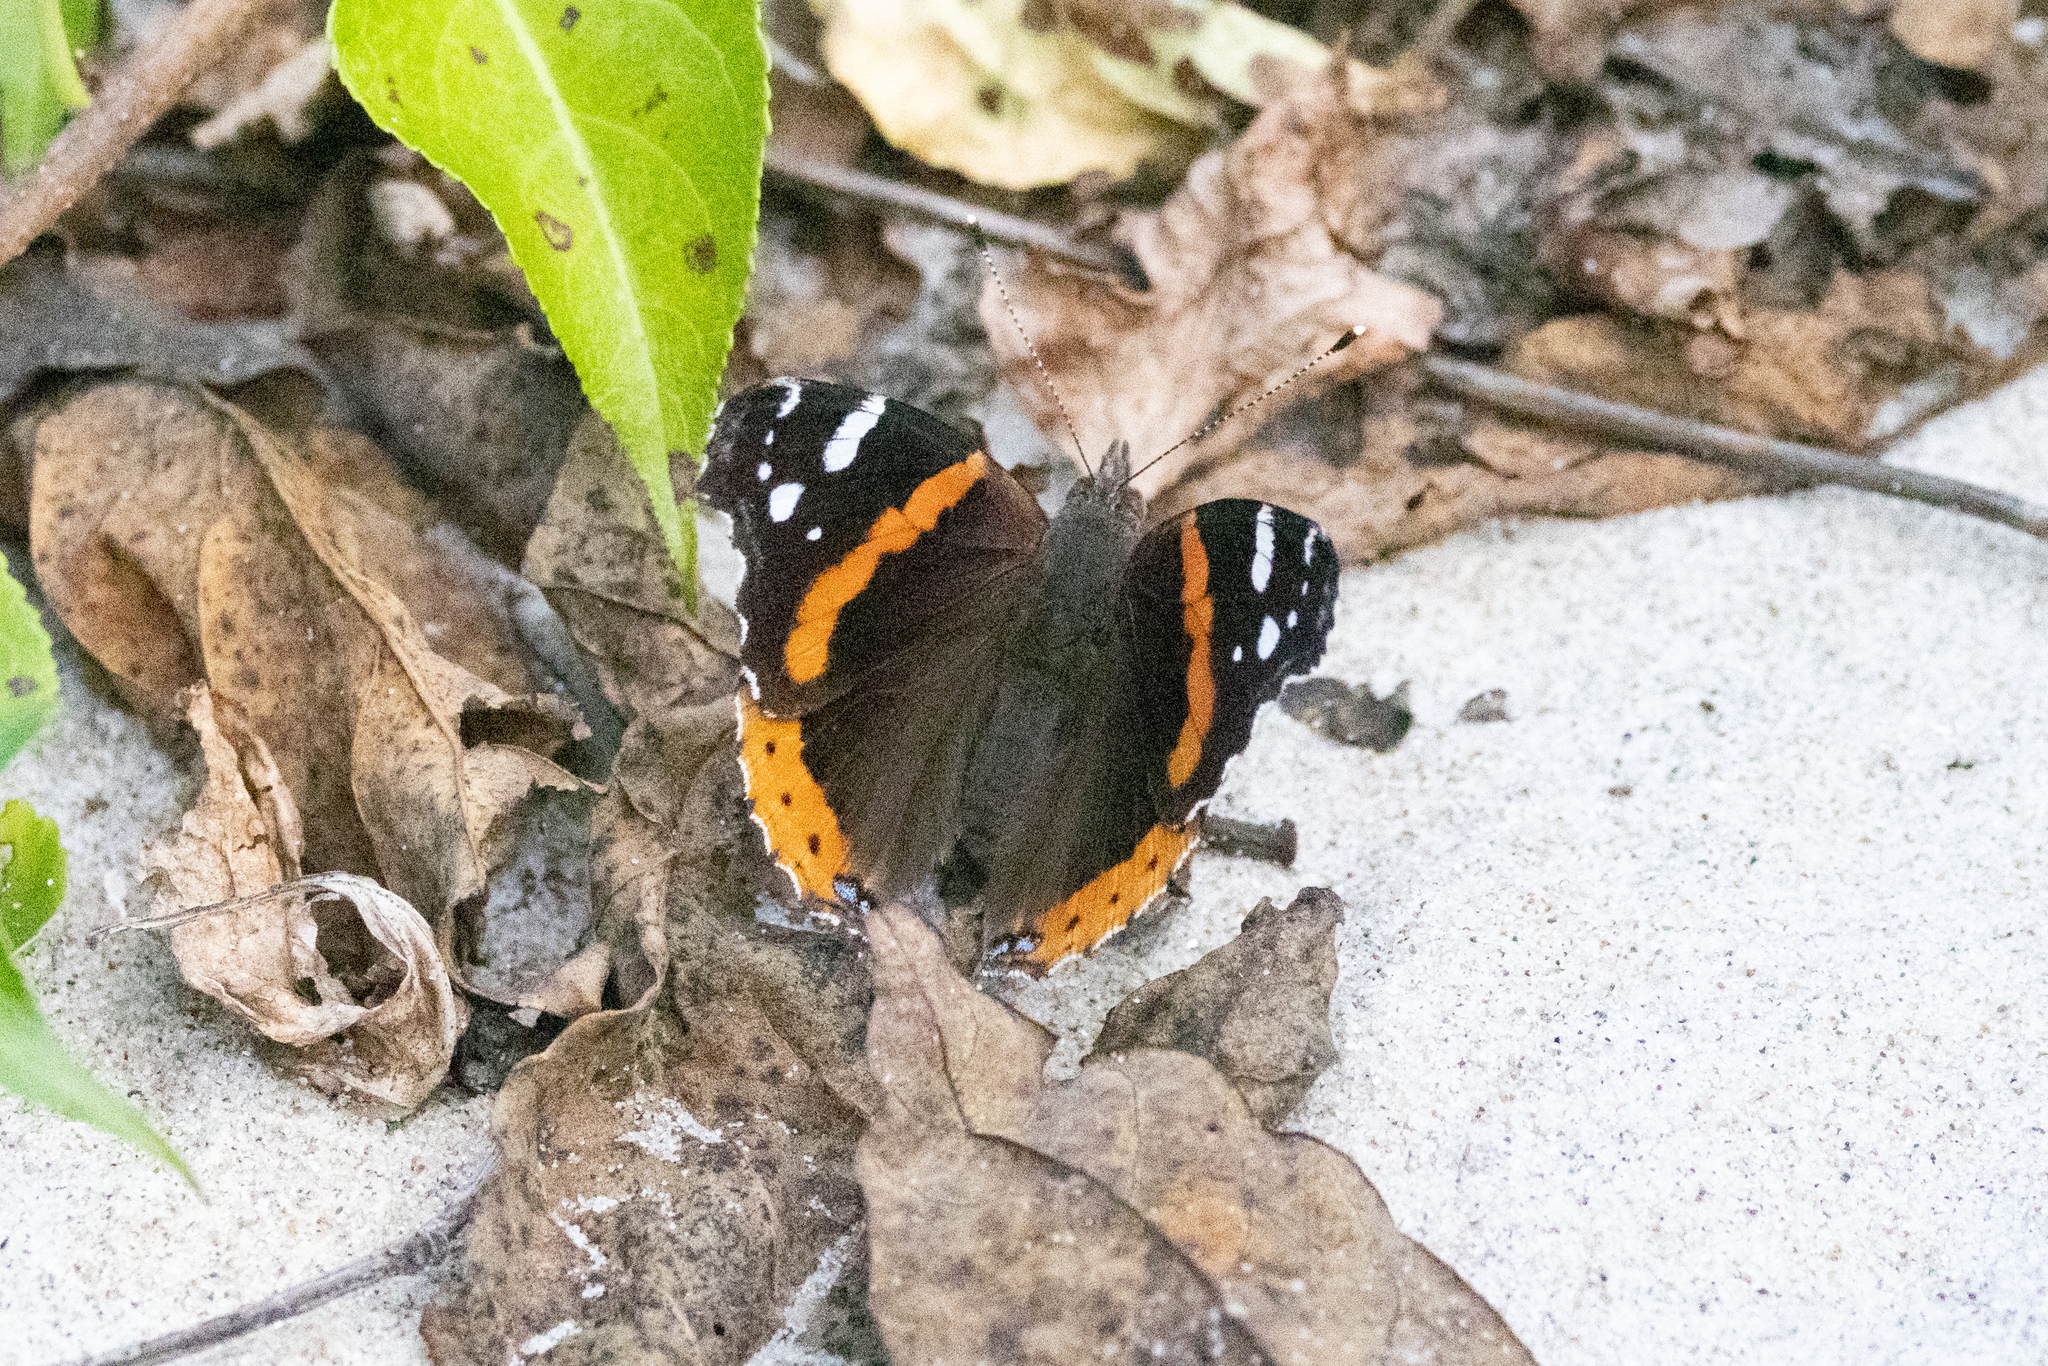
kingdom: Animalia
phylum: Arthropoda
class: Insecta
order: Lepidoptera
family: Nymphalidae
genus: Vanessa
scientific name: Vanessa atalanta
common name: Red admiral
